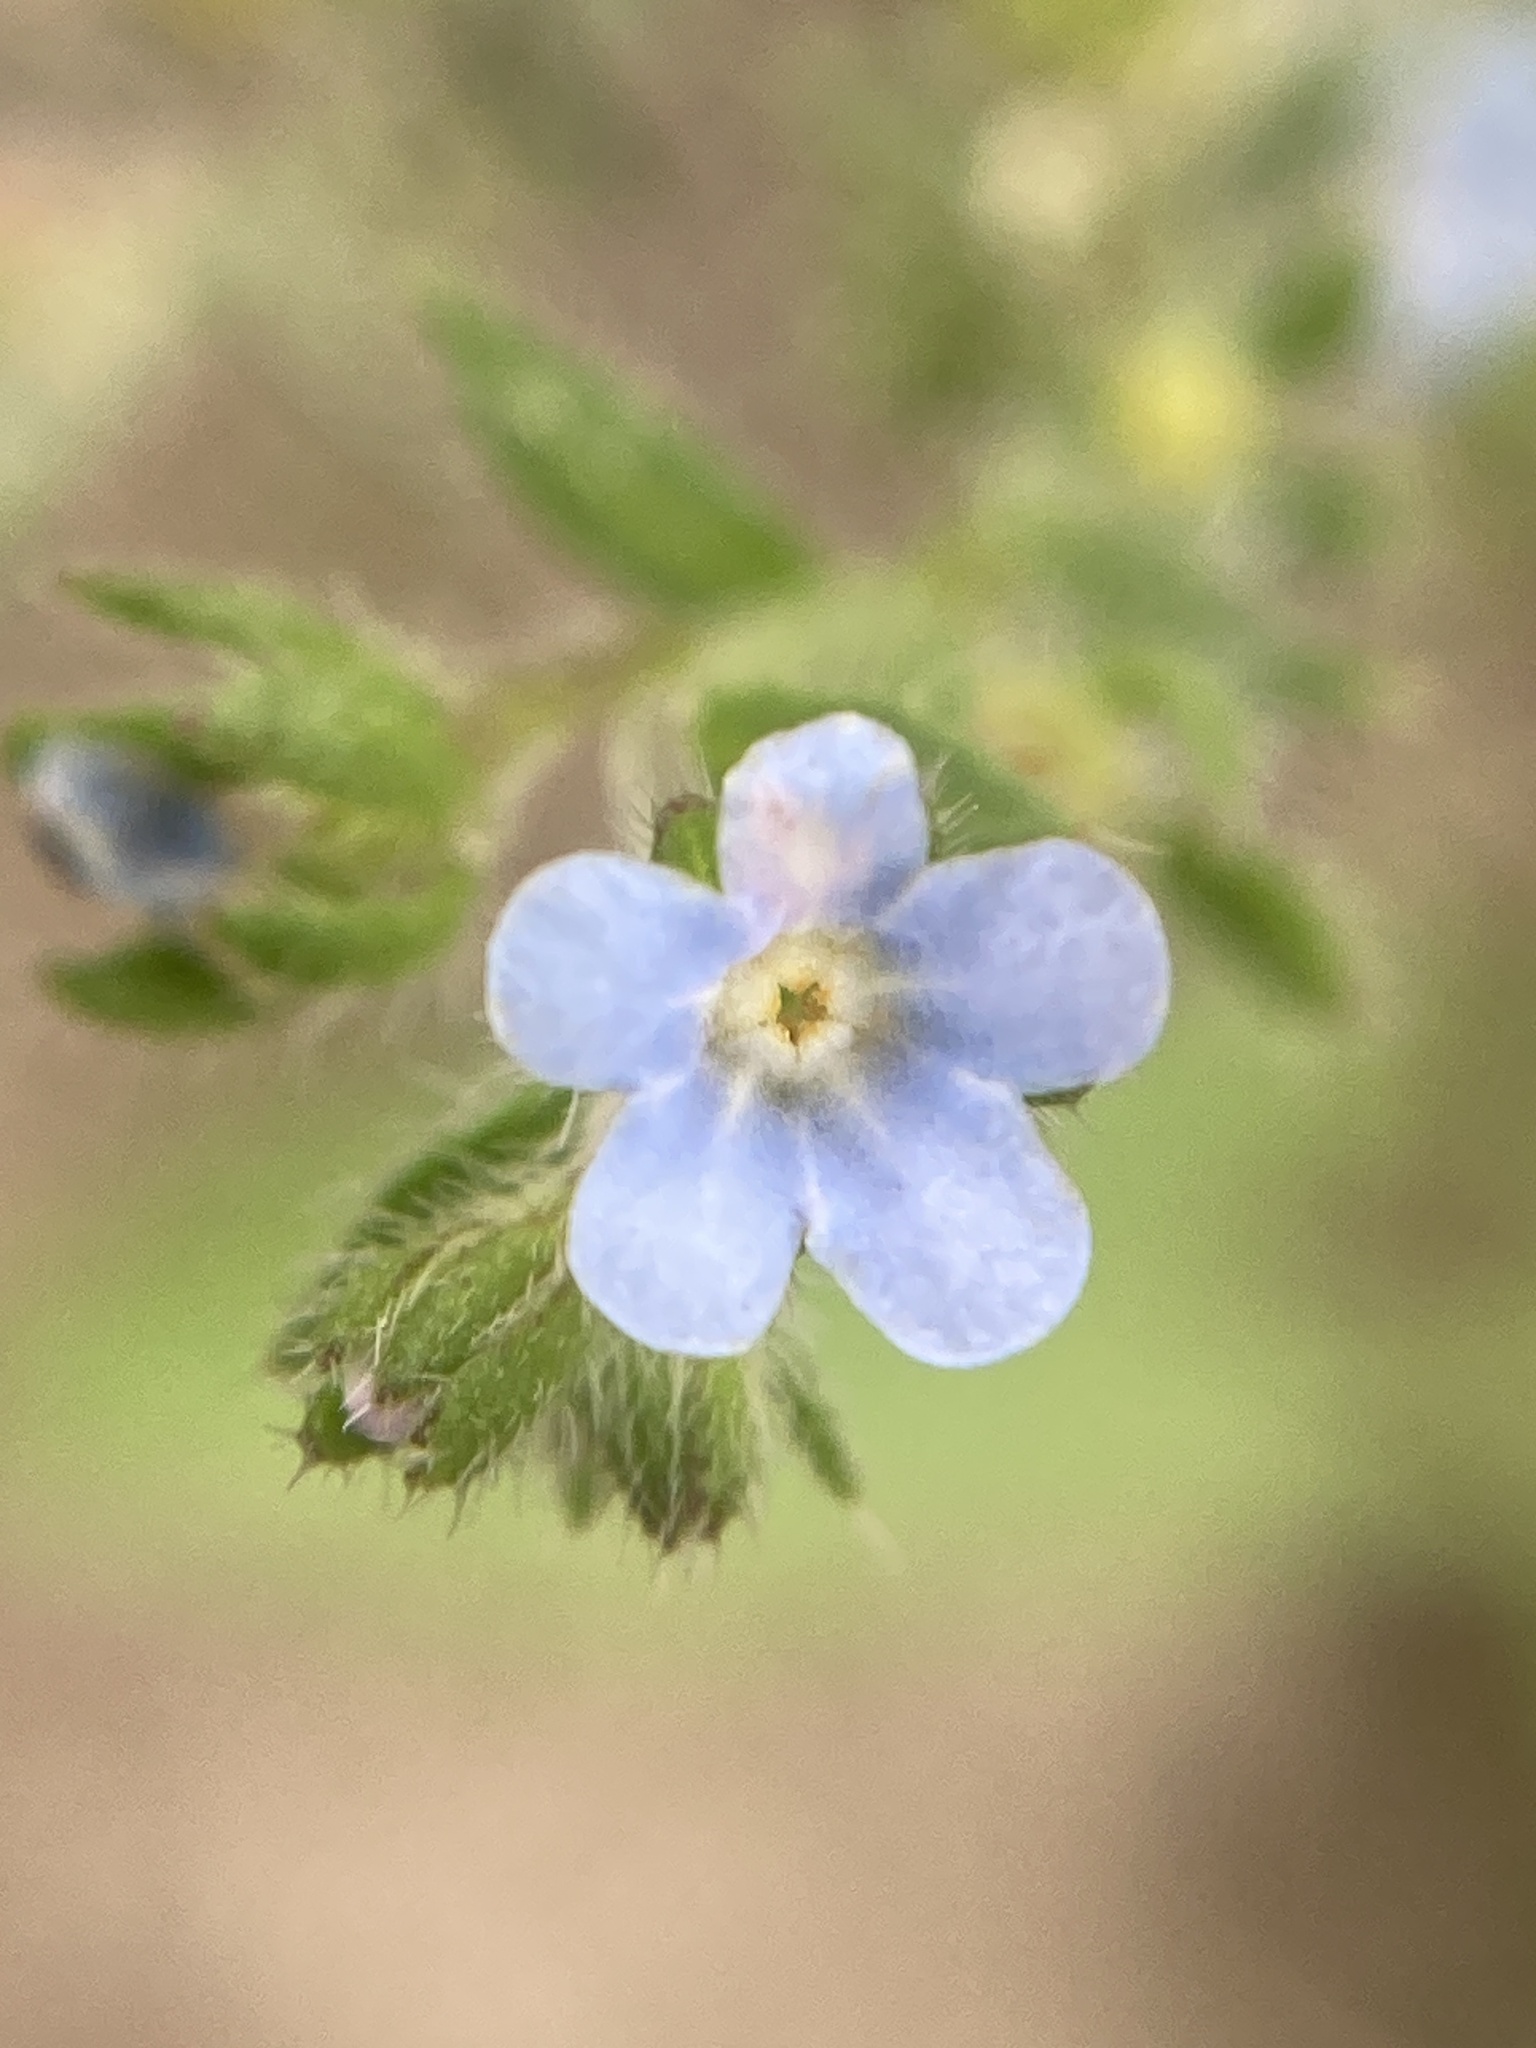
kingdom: Plantae
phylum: Tracheophyta
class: Magnoliopsida
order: Boraginales
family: Boraginaceae
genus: Lappula
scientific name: Lappula squarrosa
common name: European stickseed
